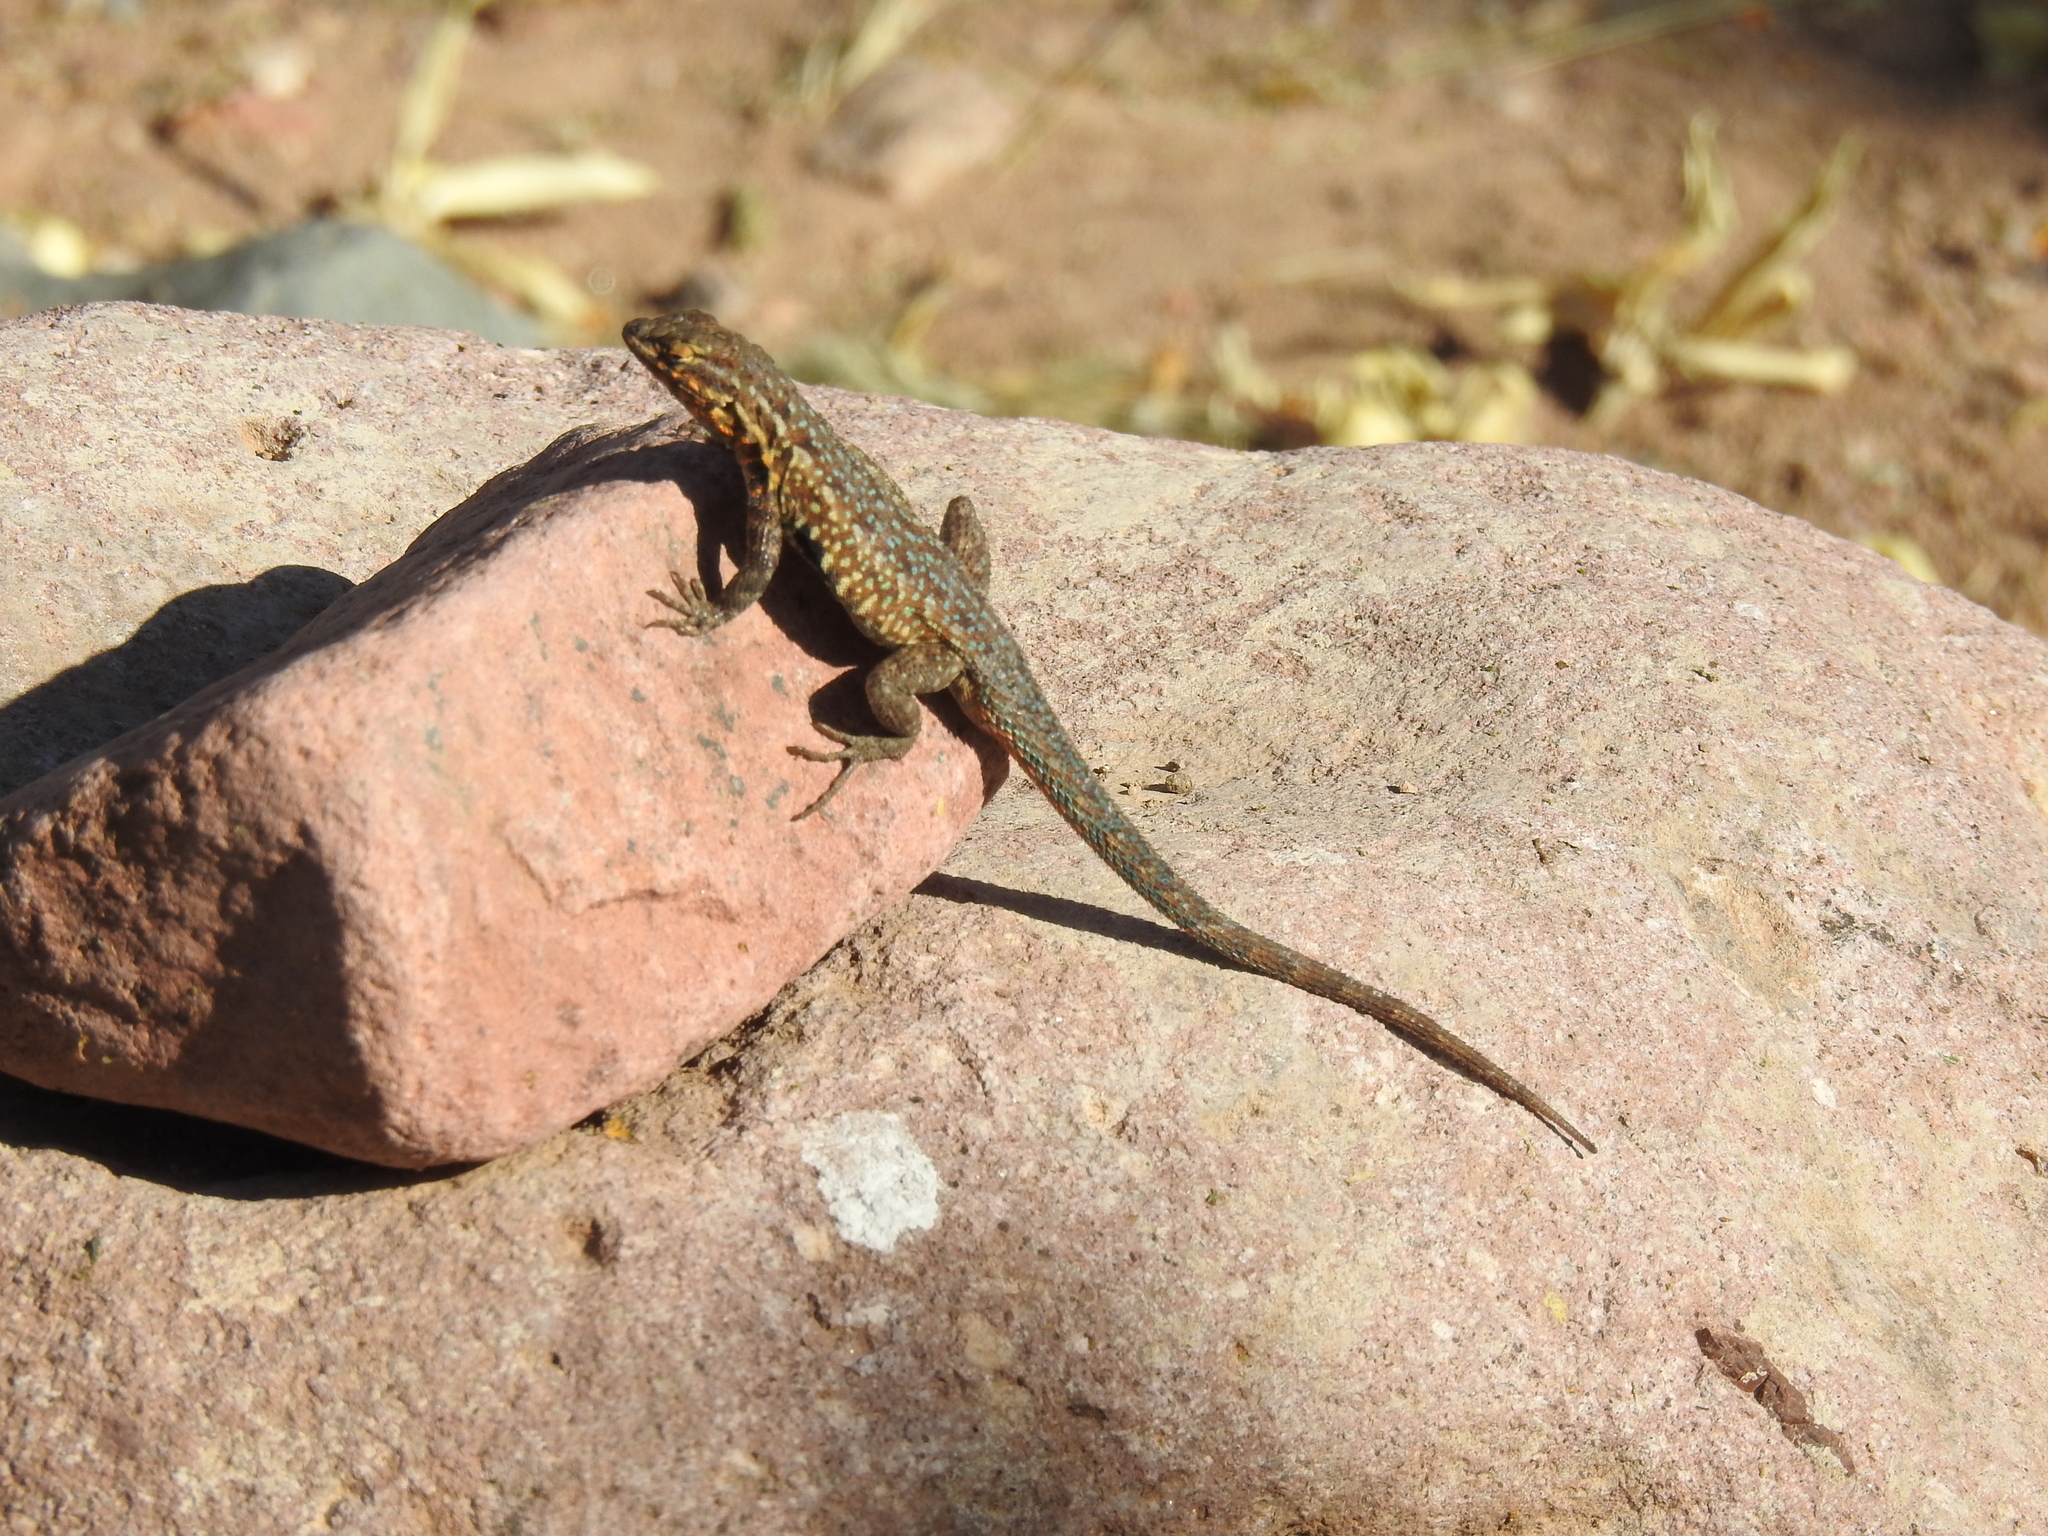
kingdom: Animalia
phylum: Chordata
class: Squamata
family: Phrynosomatidae
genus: Uta
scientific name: Uta stansburiana
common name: Side-blotched lizard
